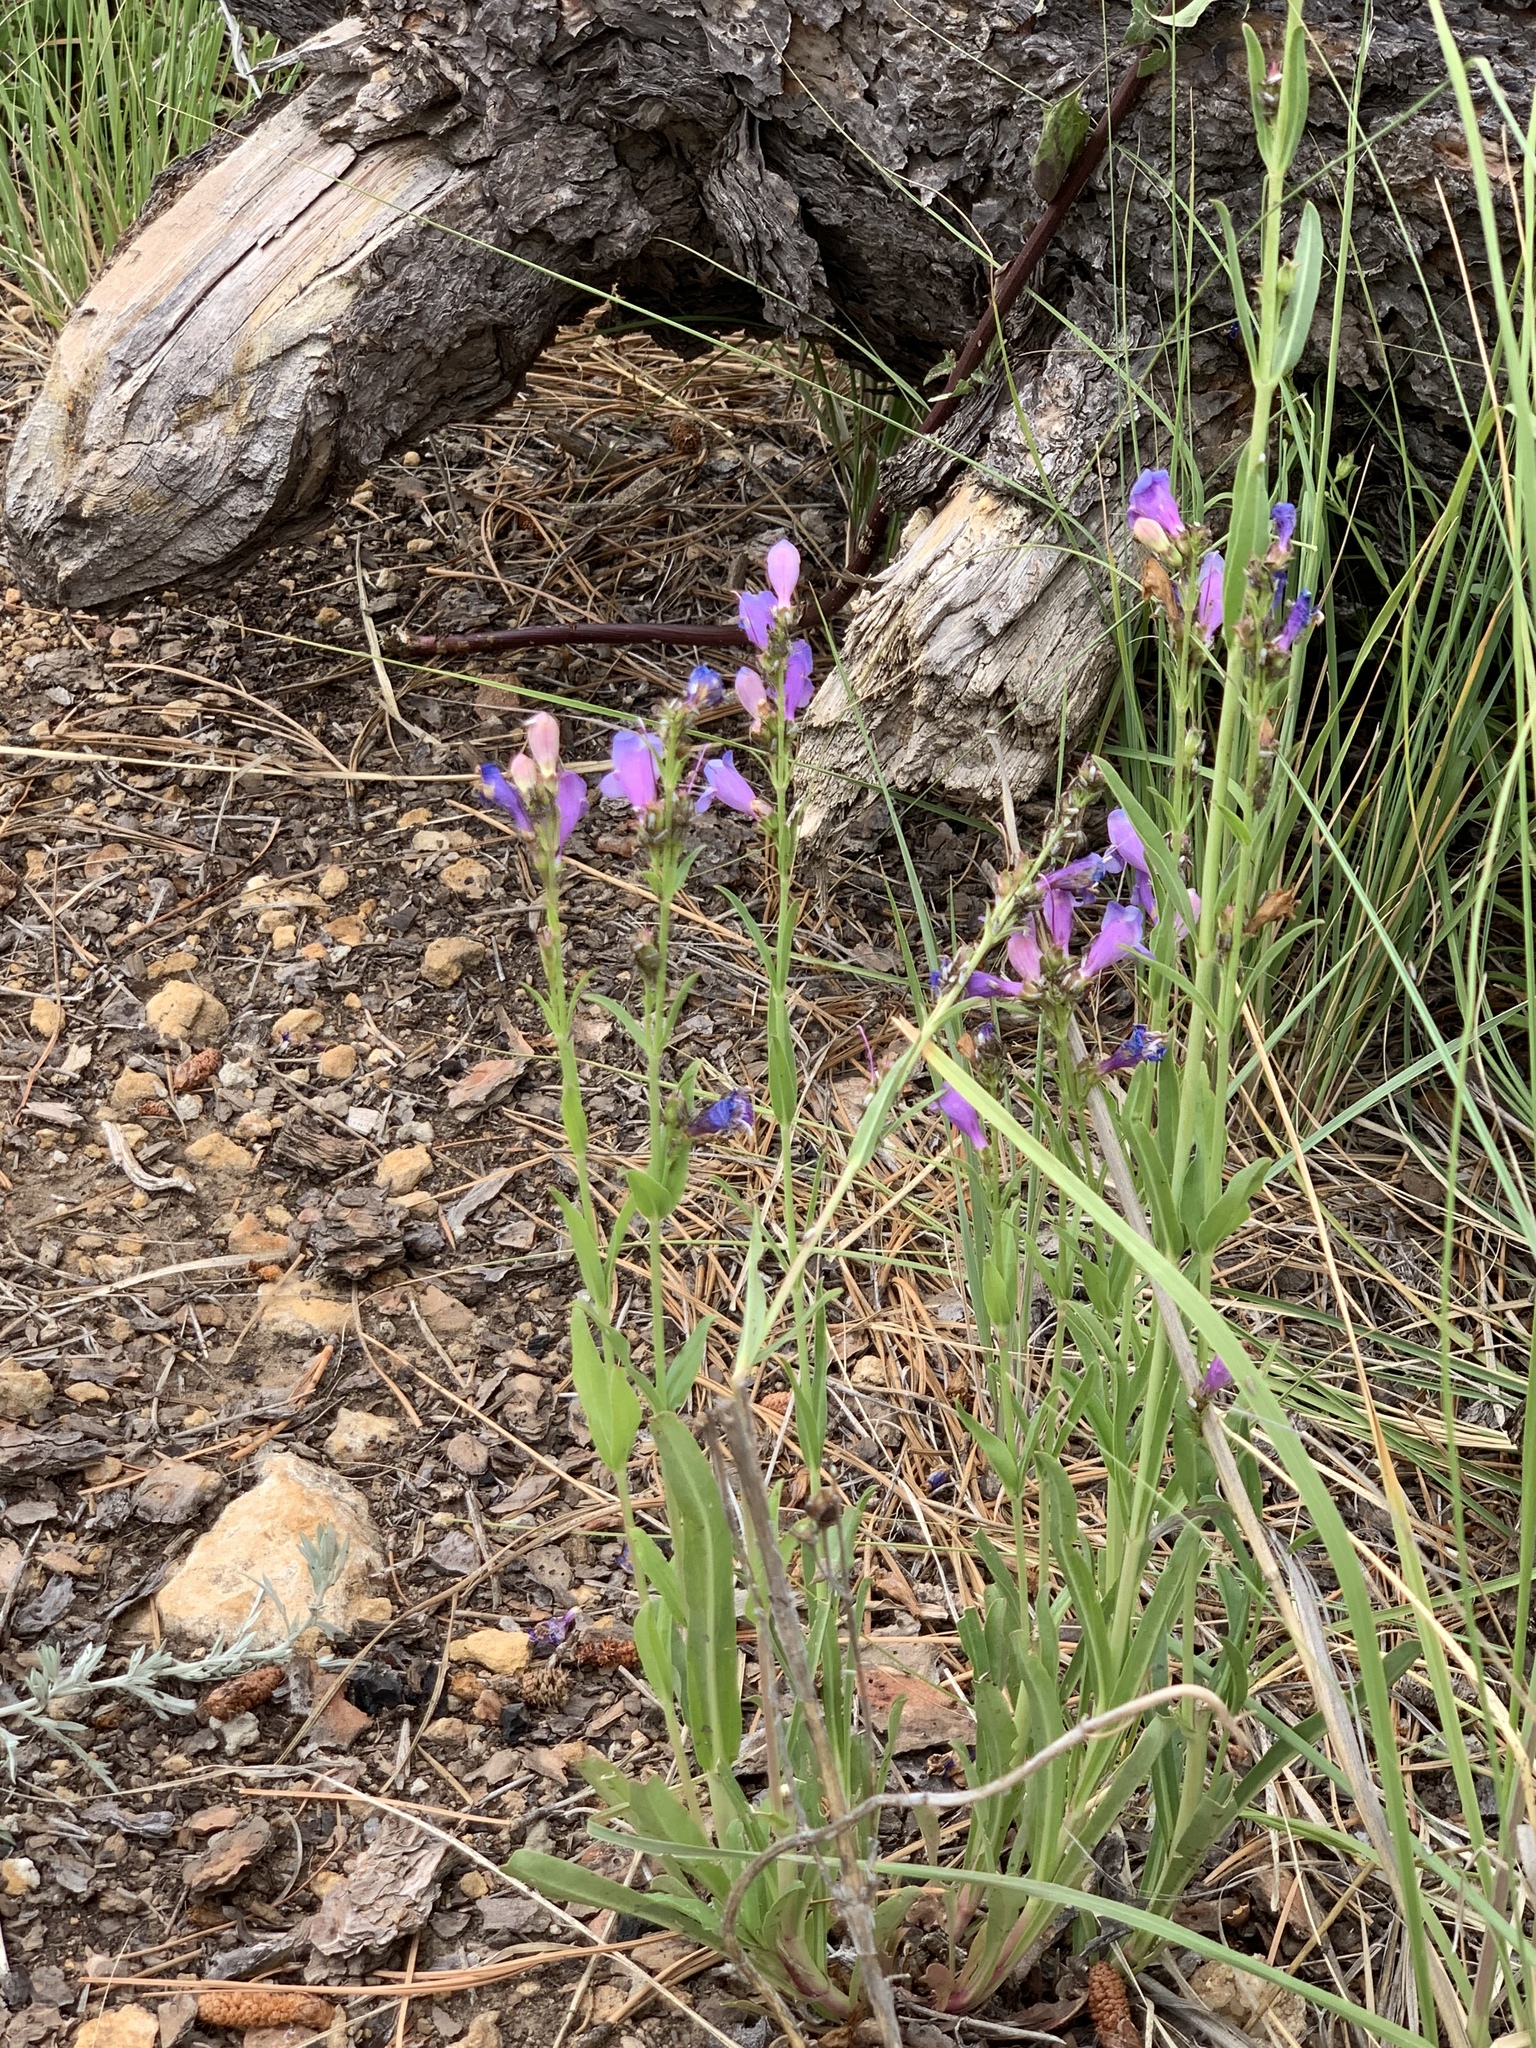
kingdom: Plantae
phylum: Tracheophyta
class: Magnoliopsida
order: Lamiales
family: Plantaginaceae
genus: Penstemon
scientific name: Penstemon neomexicanus
